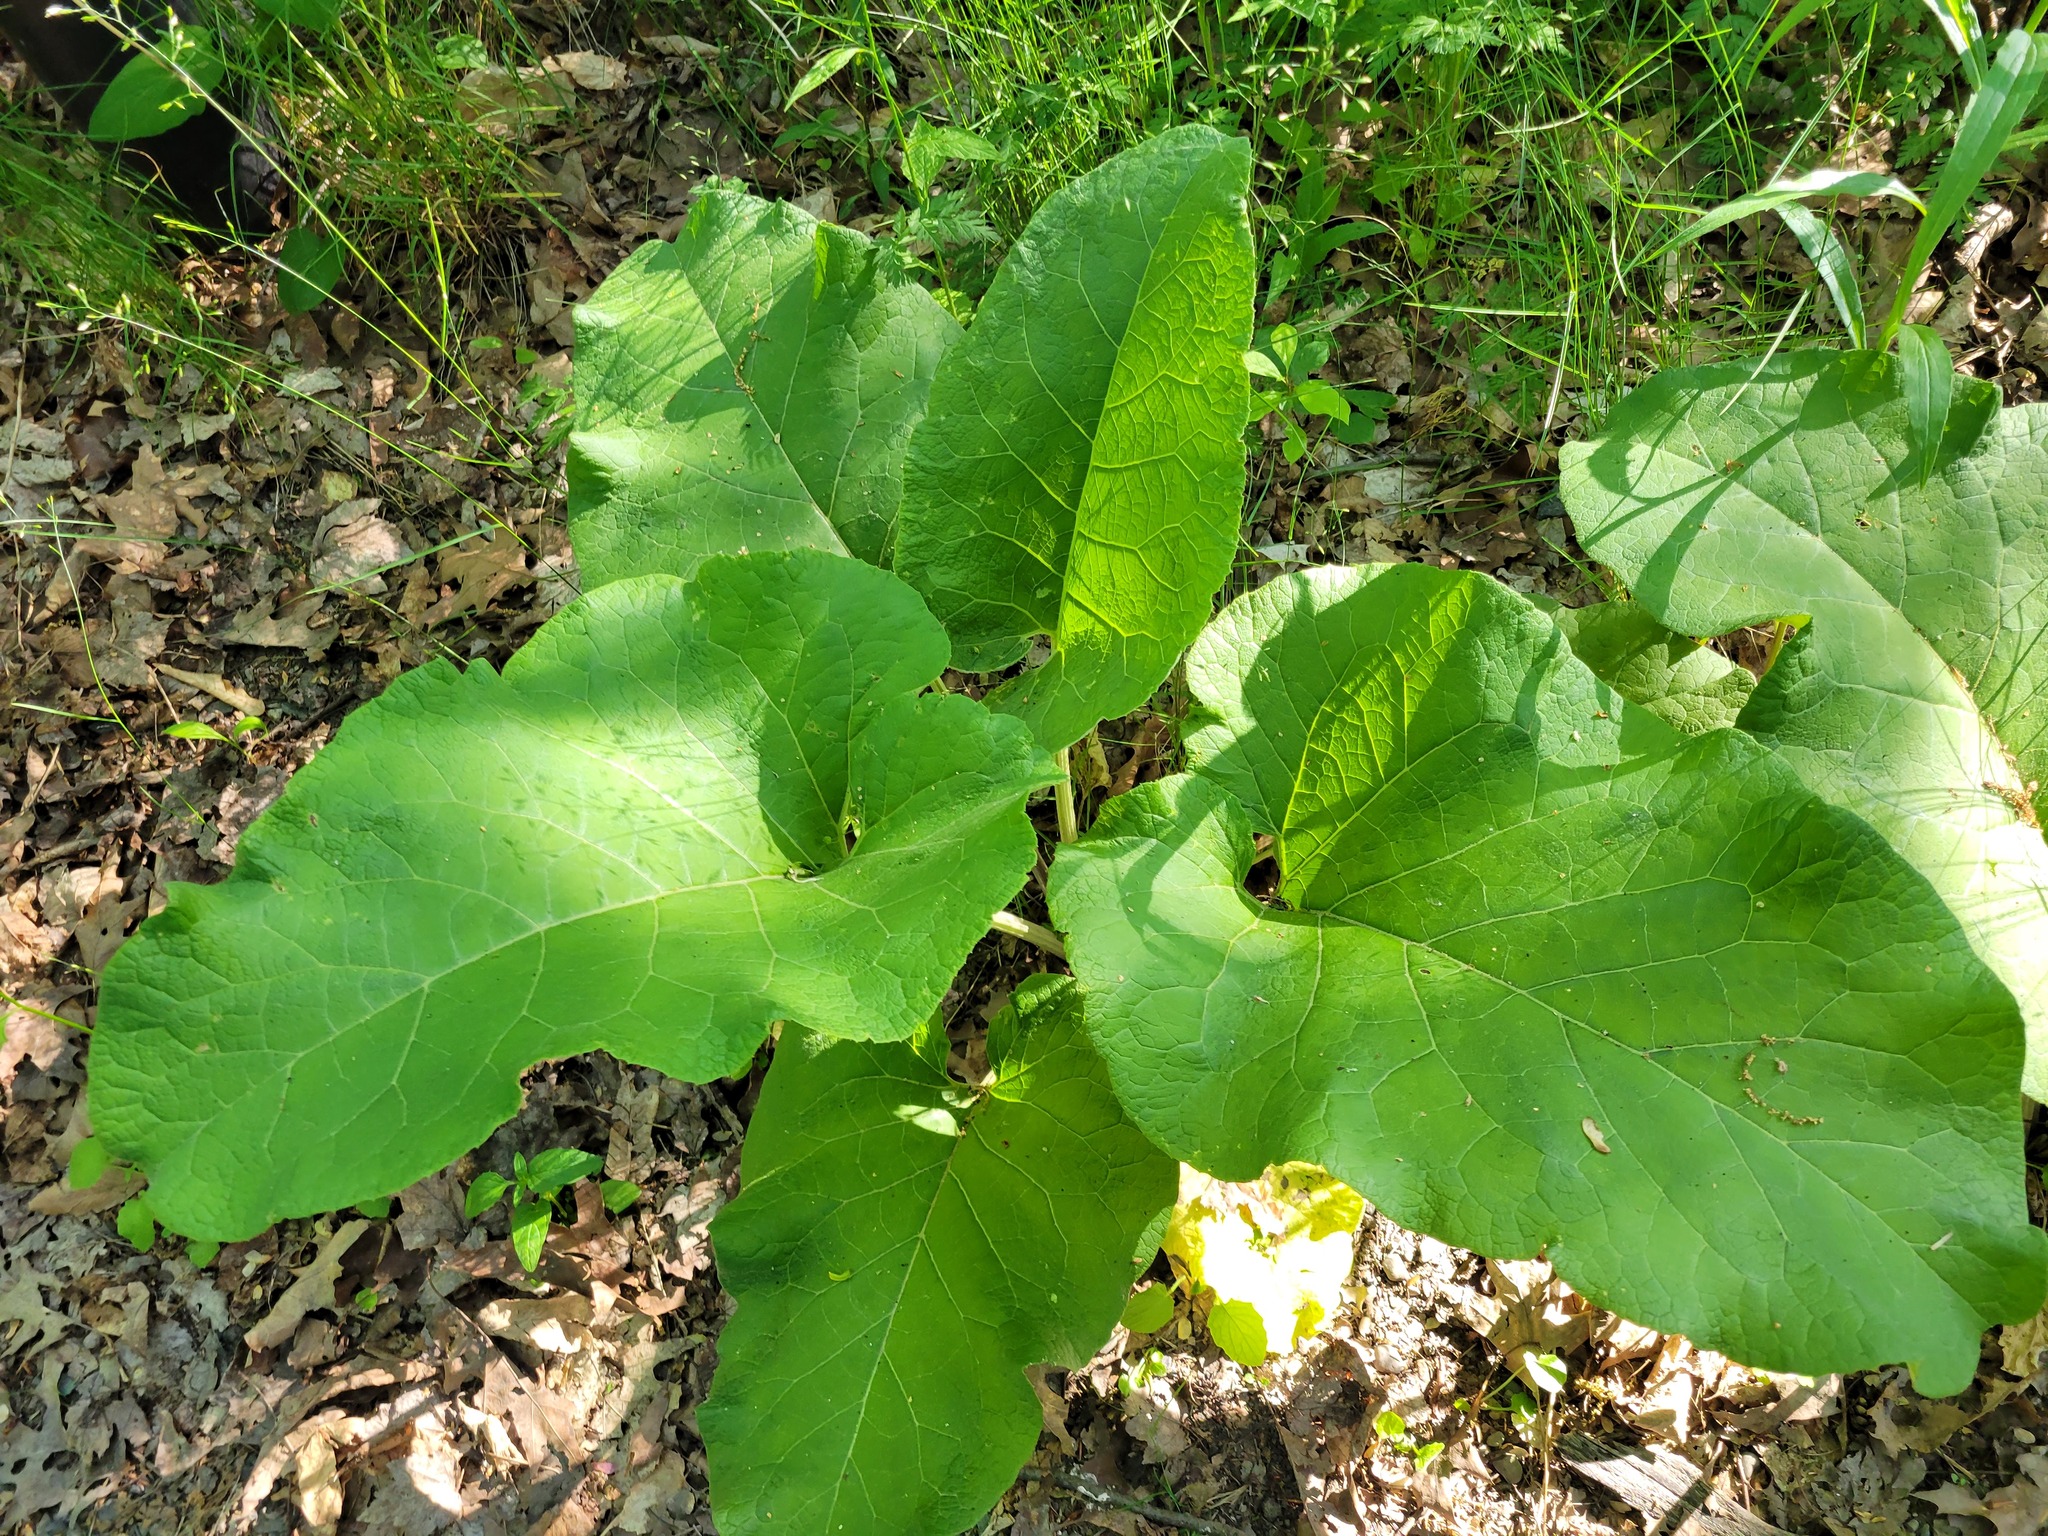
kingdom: Plantae
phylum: Tracheophyta
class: Magnoliopsida
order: Asterales
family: Asteraceae
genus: Arctium
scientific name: Arctium
